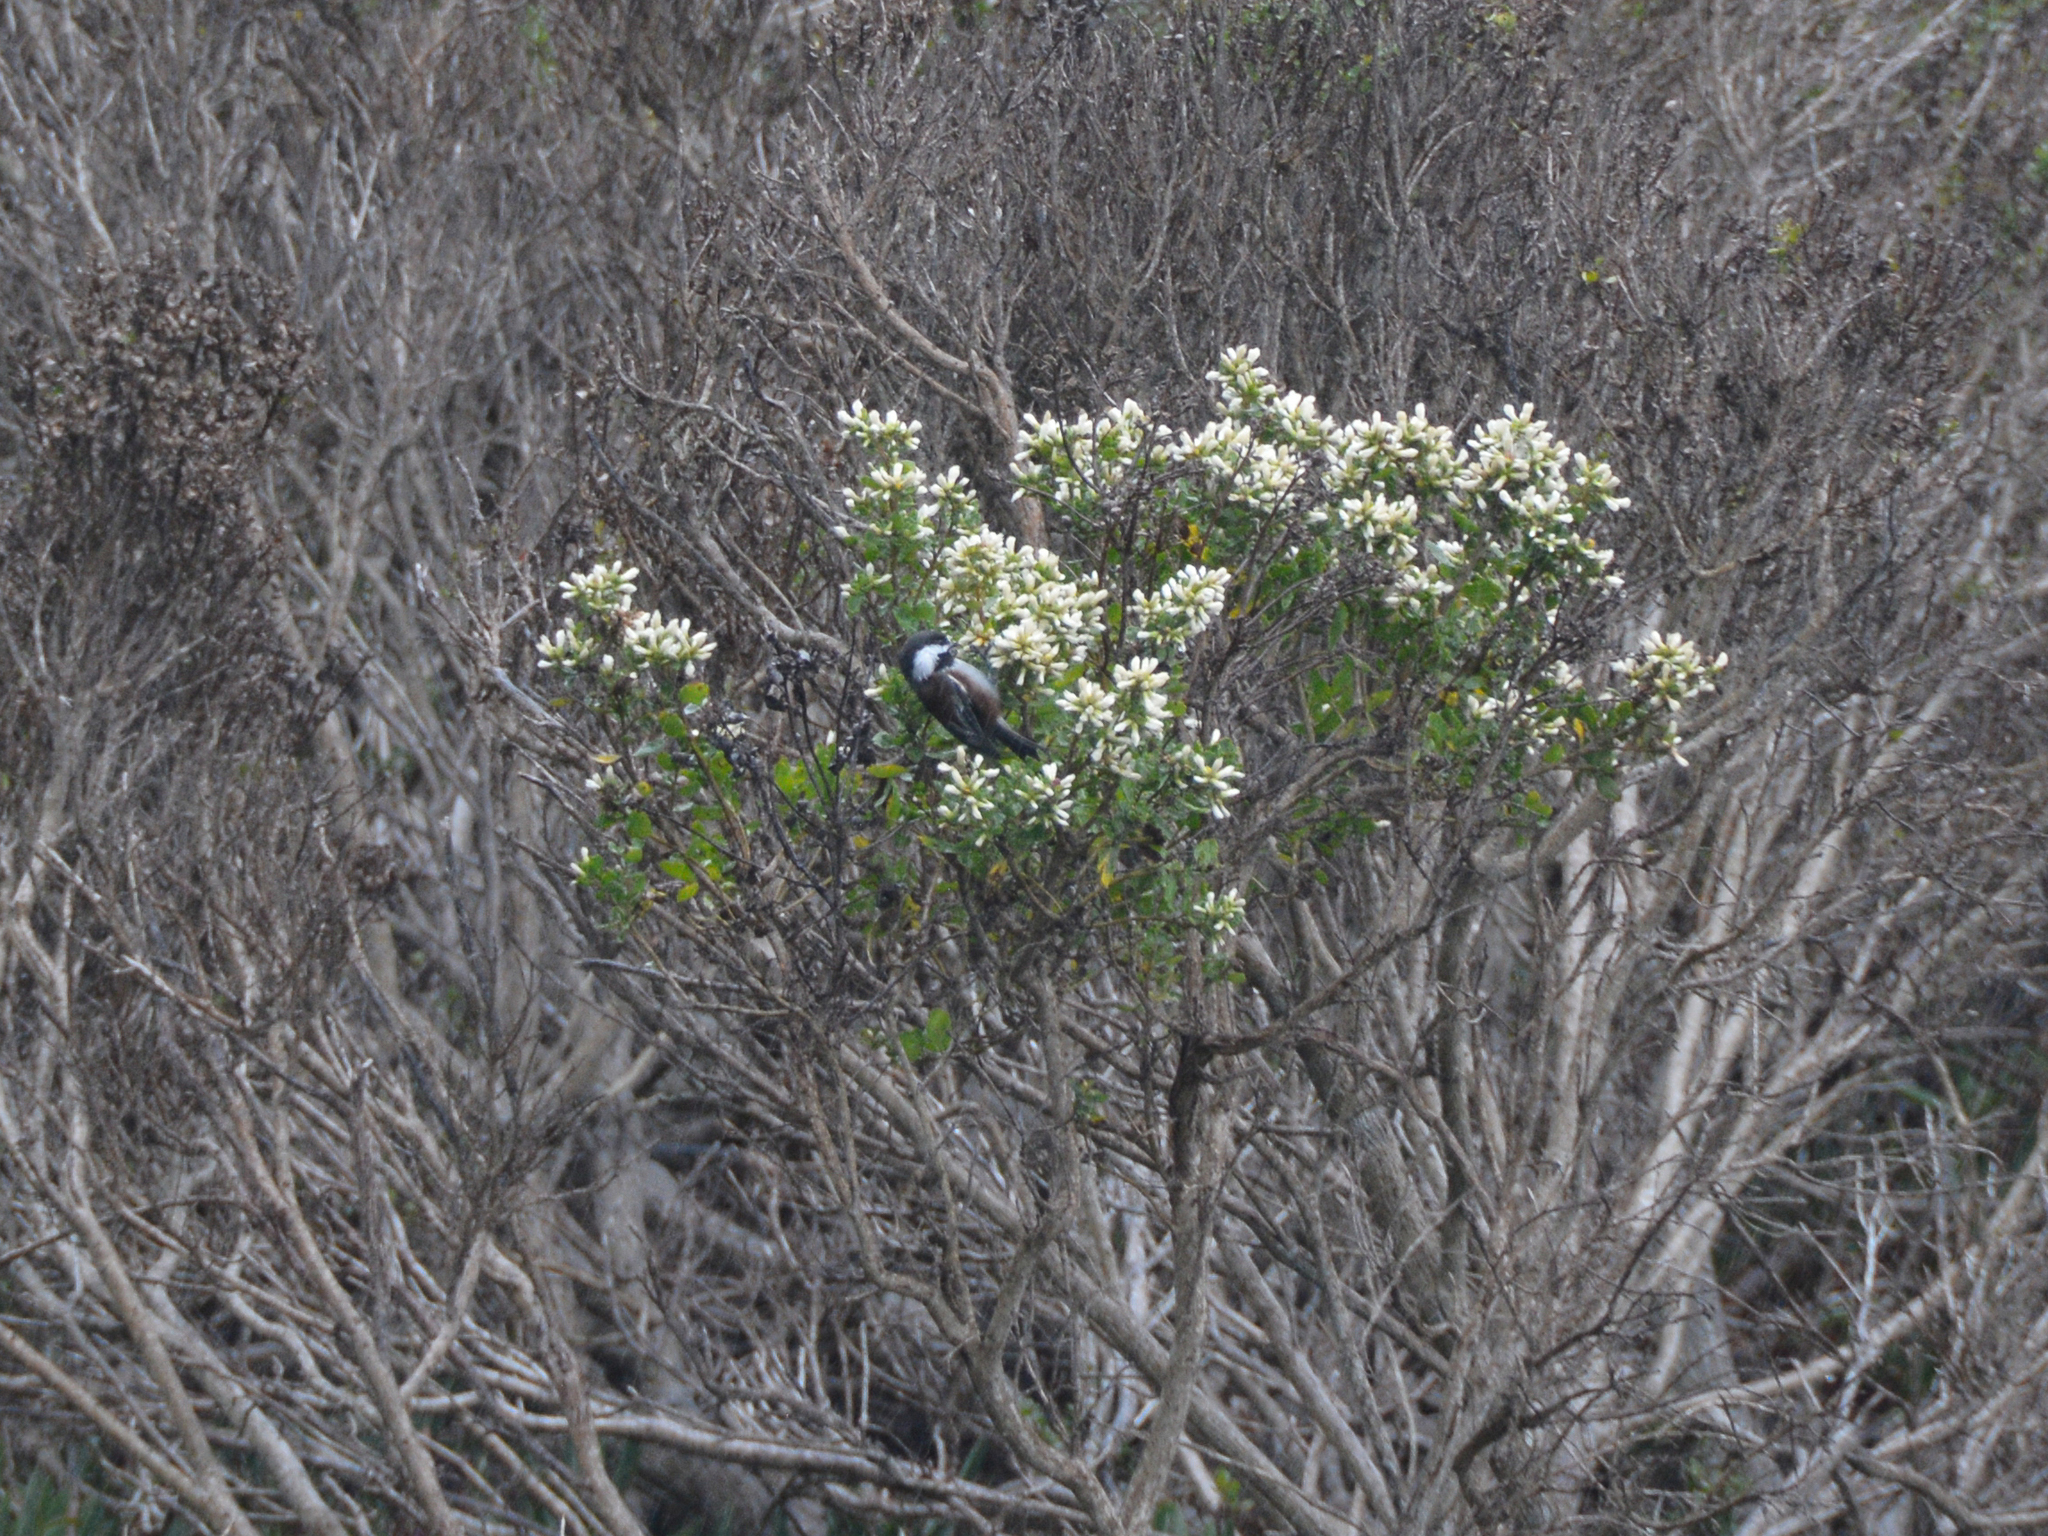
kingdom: Animalia
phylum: Chordata
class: Aves
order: Passeriformes
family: Paridae
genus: Poecile
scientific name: Poecile rufescens
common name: Chestnut-backed chickadee
